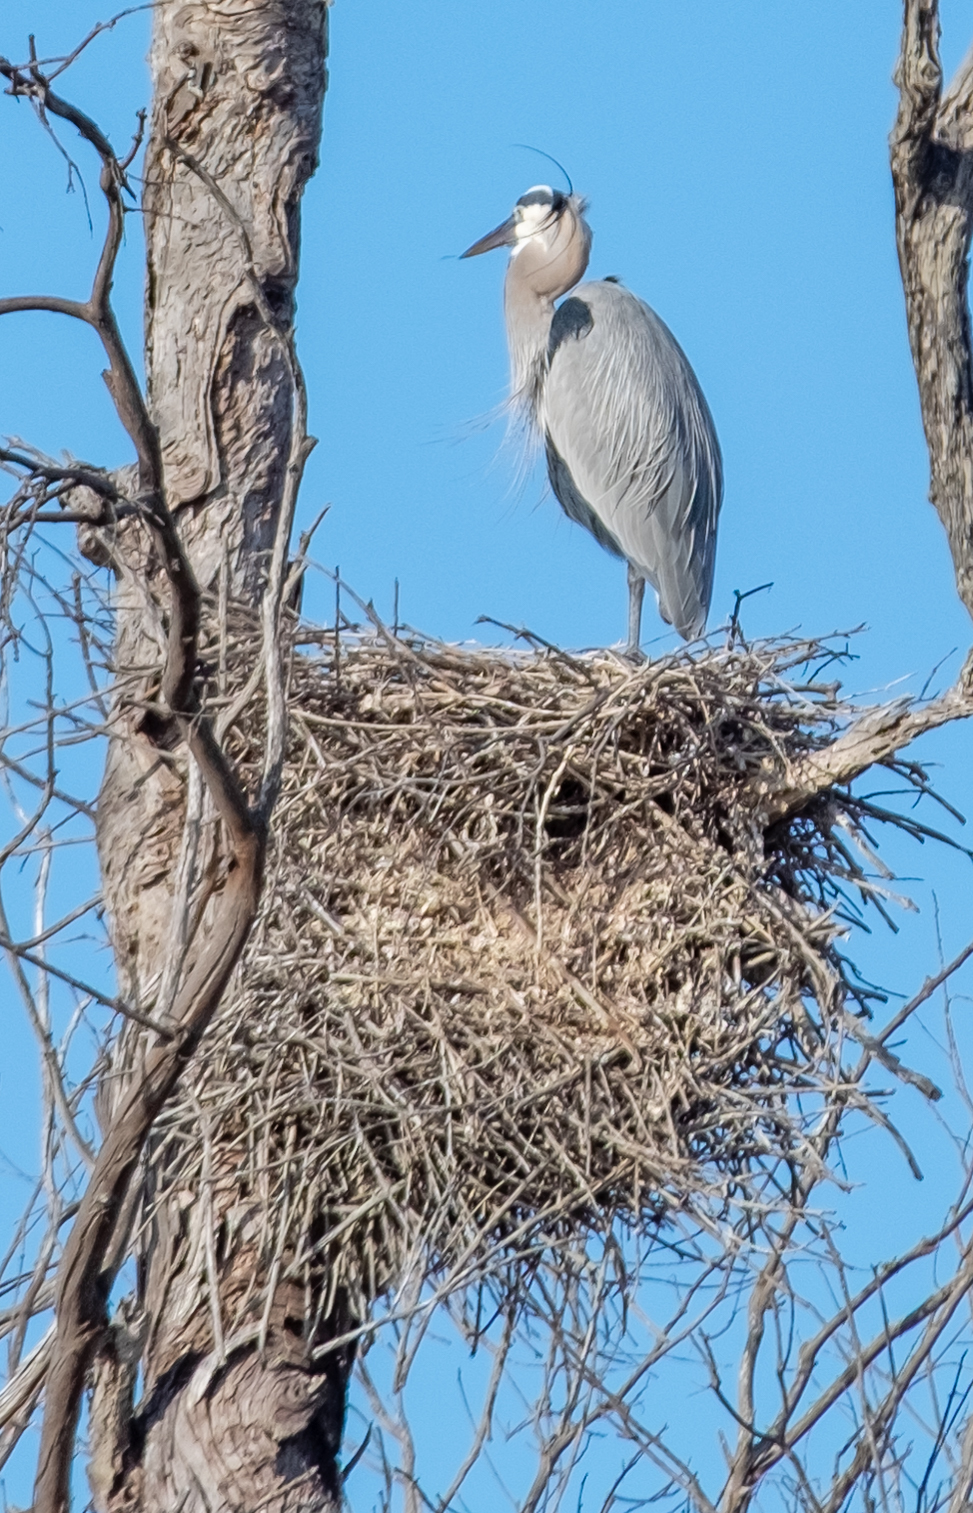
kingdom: Animalia
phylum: Chordata
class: Aves
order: Pelecaniformes
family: Ardeidae
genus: Ardea
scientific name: Ardea herodias
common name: Great blue heron
